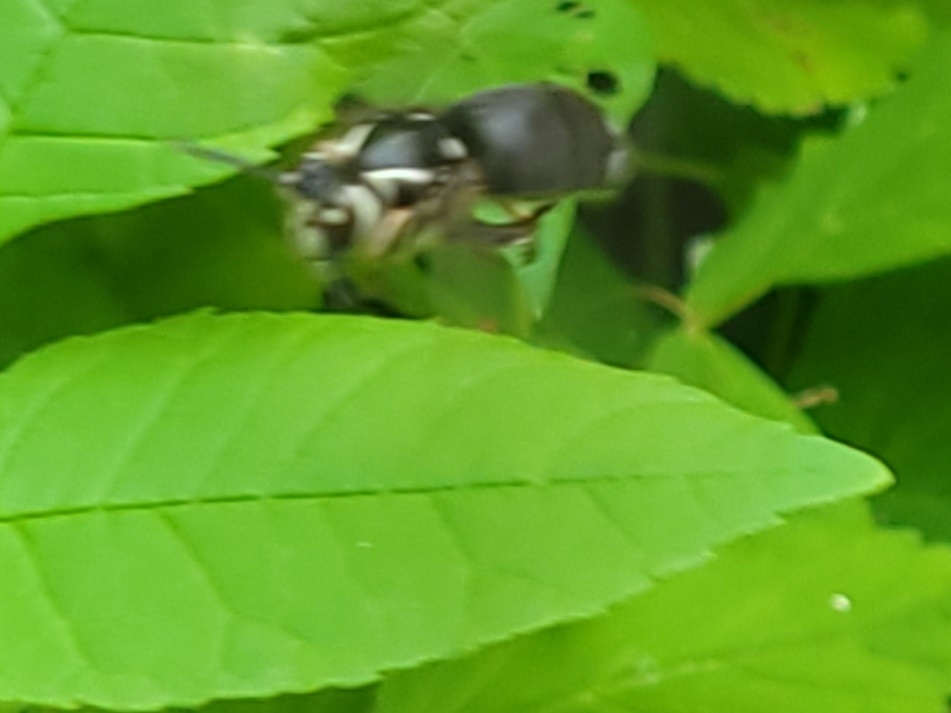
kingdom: Animalia
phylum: Arthropoda
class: Insecta
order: Hymenoptera
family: Vespidae
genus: Dolichovespula
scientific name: Dolichovespula maculata
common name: Bald-faced hornet
